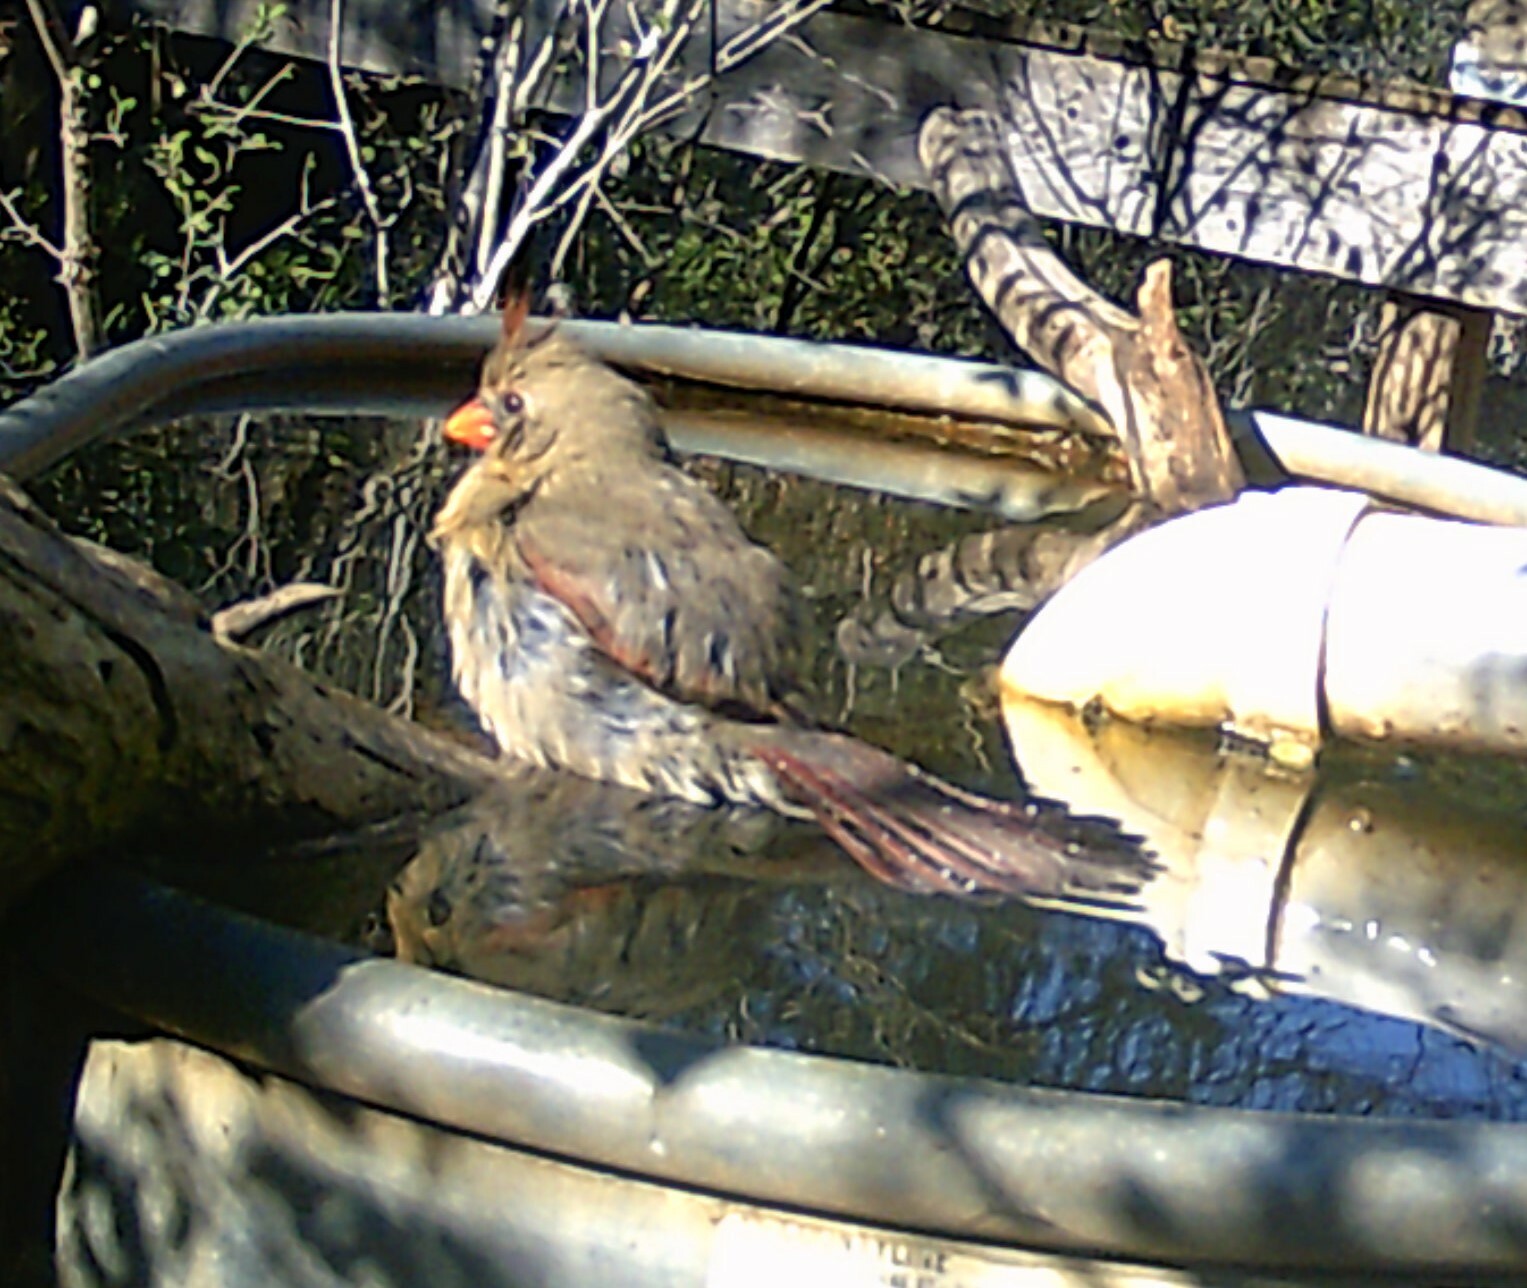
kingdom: Animalia
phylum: Chordata
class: Aves
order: Passeriformes
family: Cardinalidae
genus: Cardinalis
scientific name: Cardinalis cardinalis
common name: Northern cardinal
